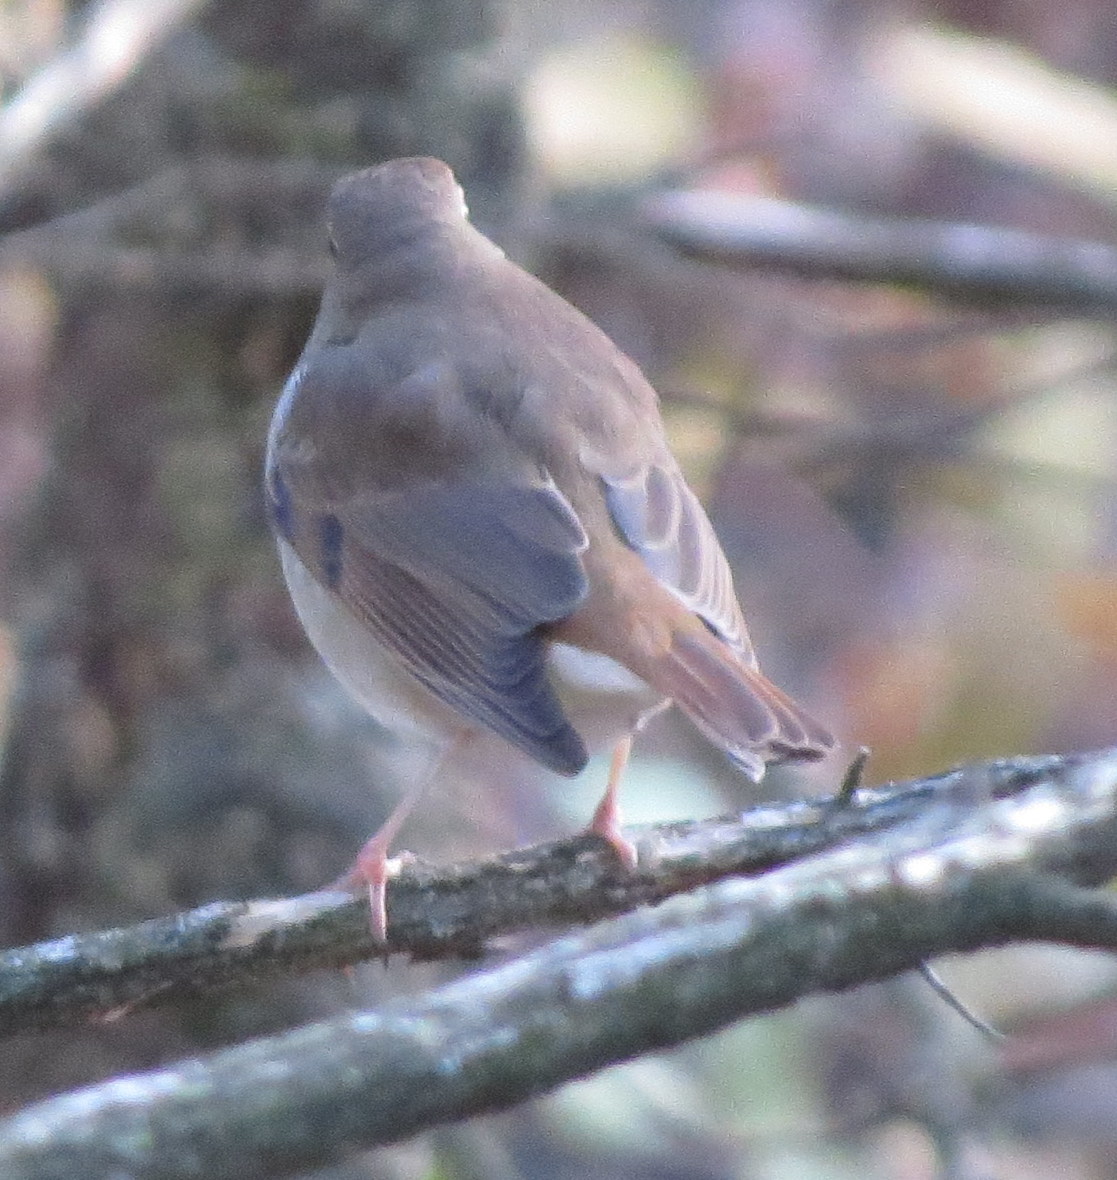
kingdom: Animalia
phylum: Chordata
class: Aves
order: Passeriformes
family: Turdidae
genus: Catharus
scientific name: Catharus guttatus
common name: Hermit thrush
